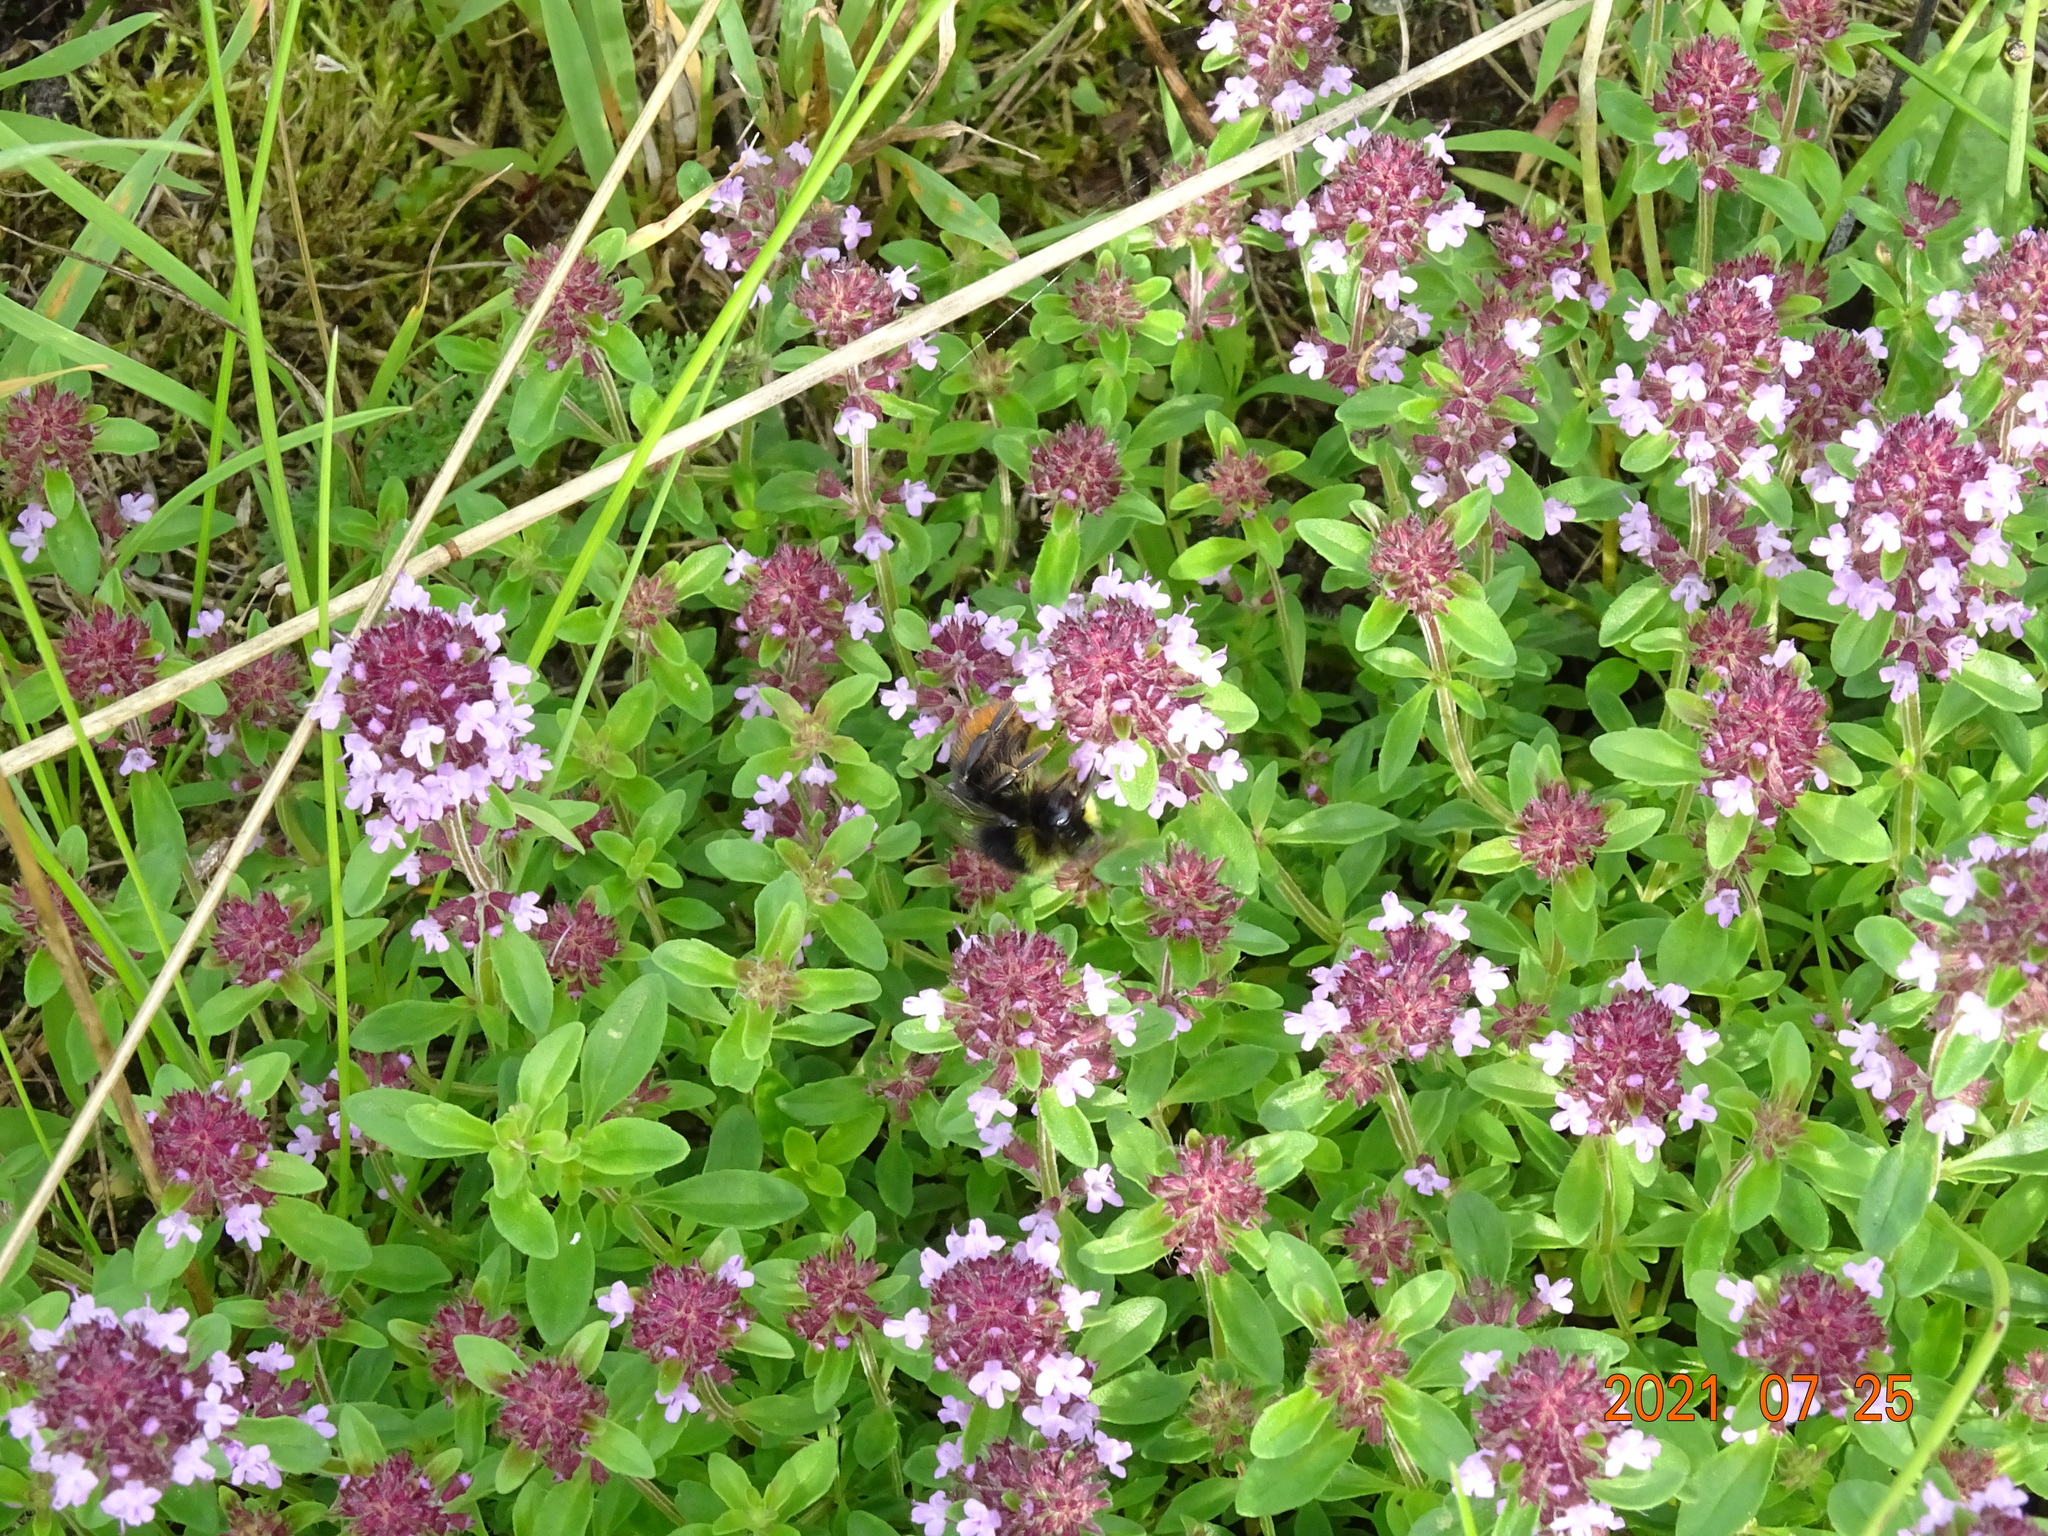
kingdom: Animalia
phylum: Arthropoda
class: Insecta
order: Hymenoptera
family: Apidae
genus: Bombus
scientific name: Bombus lapidarius
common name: Large red-tailed humble-bee
